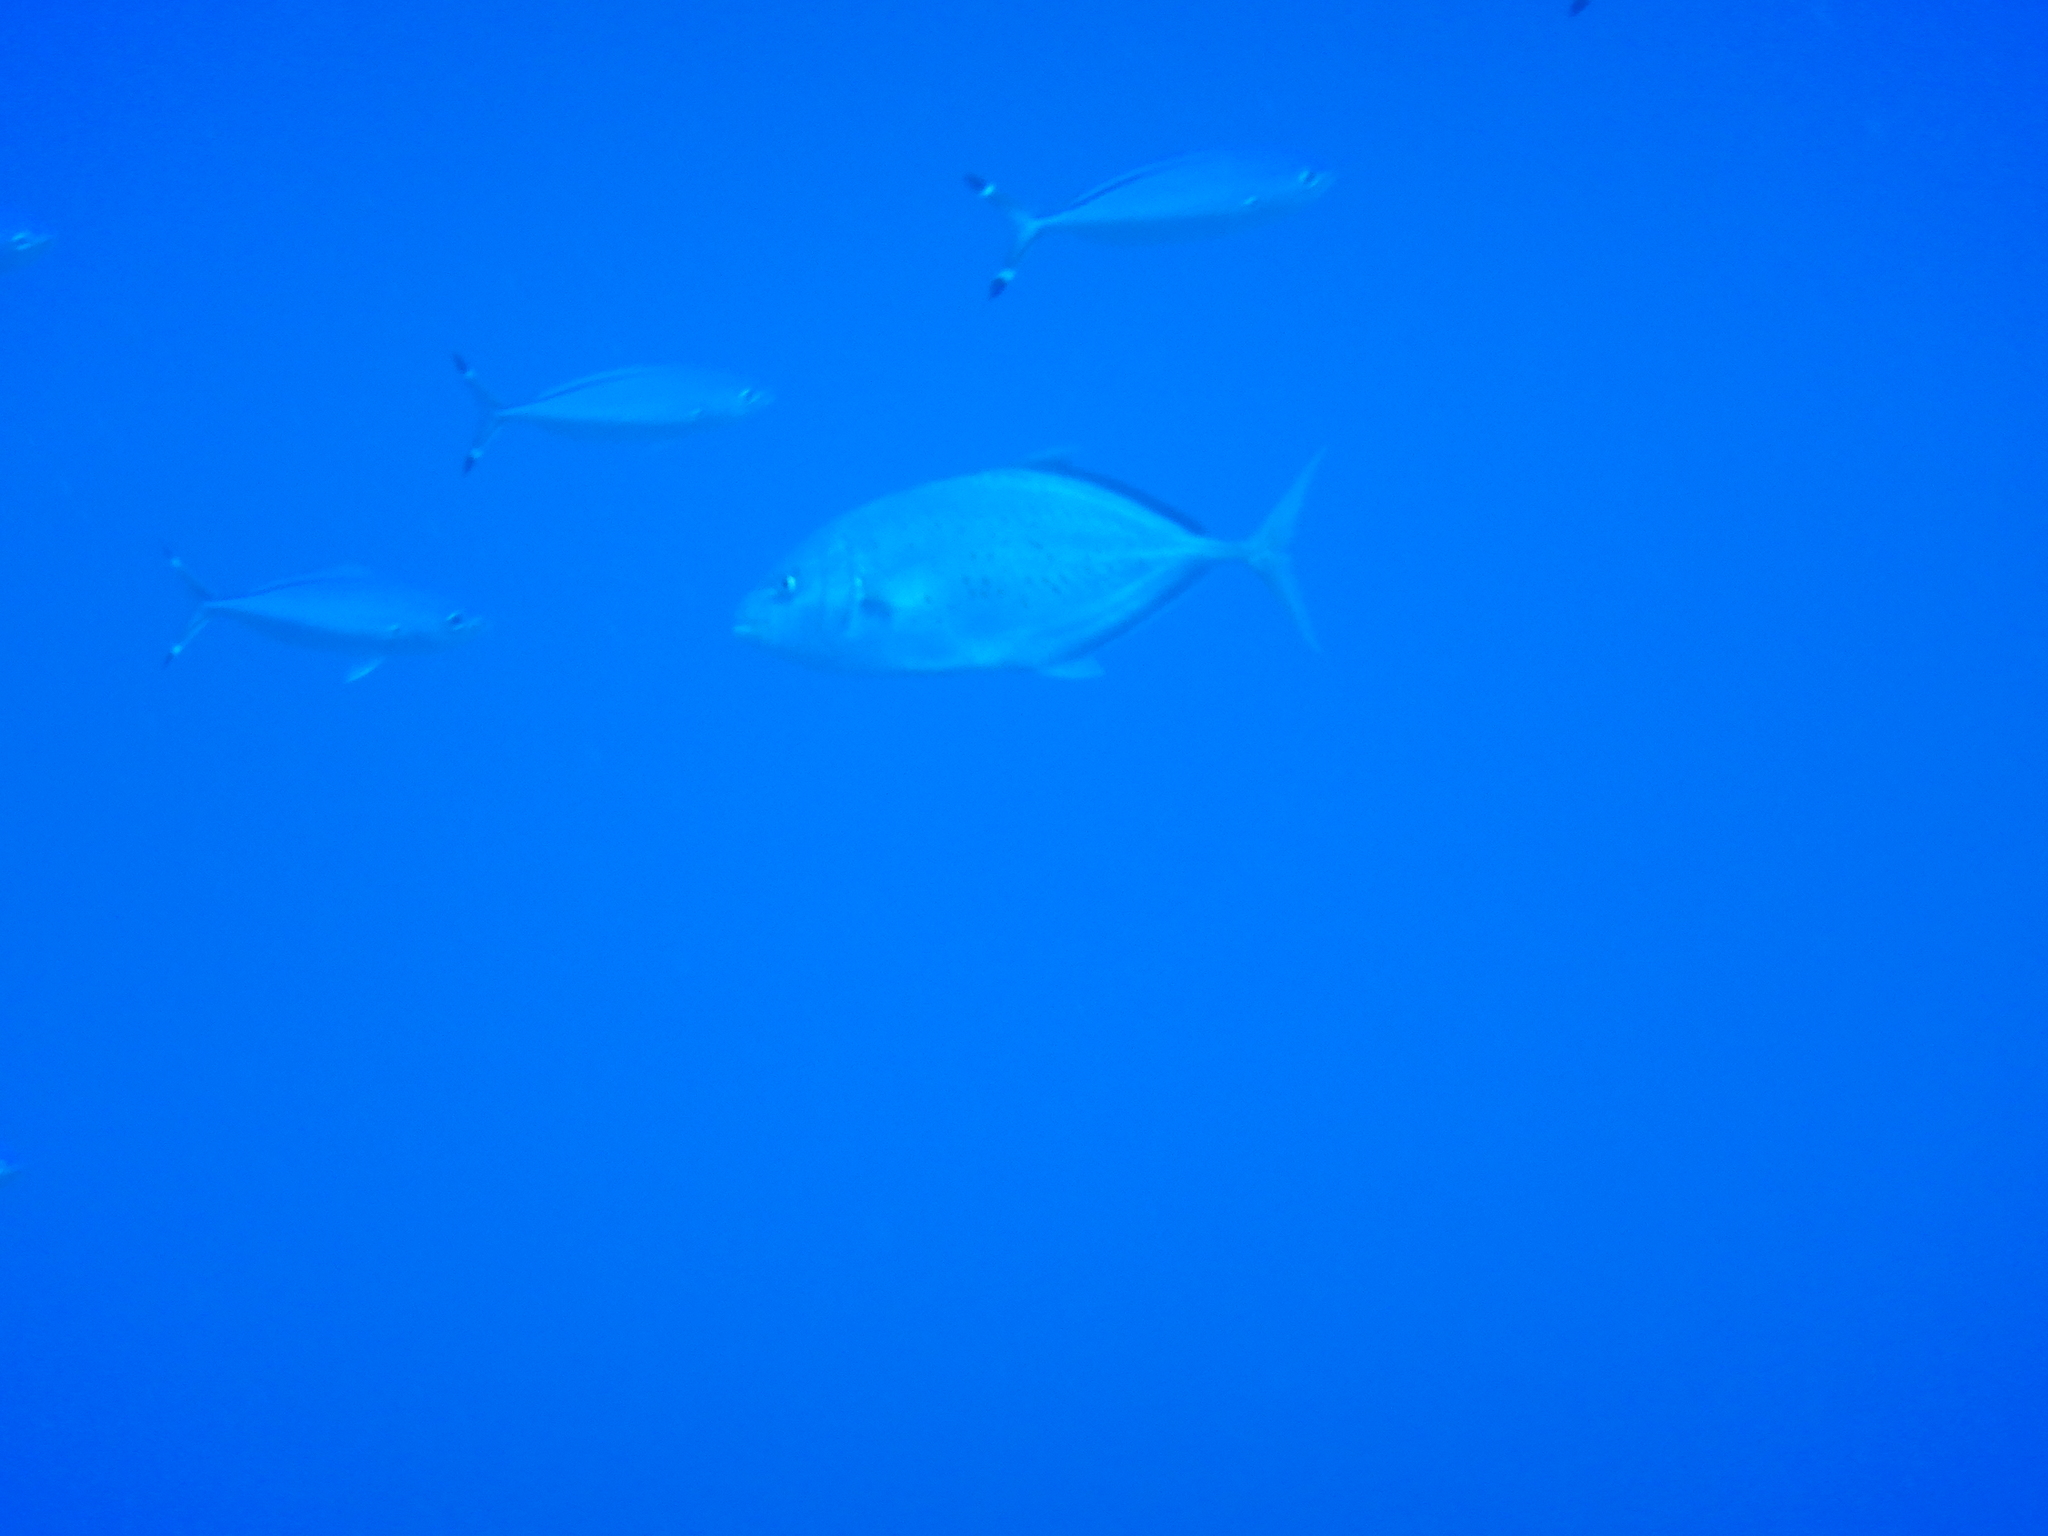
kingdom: Animalia
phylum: Chordata
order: Perciformes
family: Carangidae
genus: Flavocaranx
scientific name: Flavocaranx bajad
